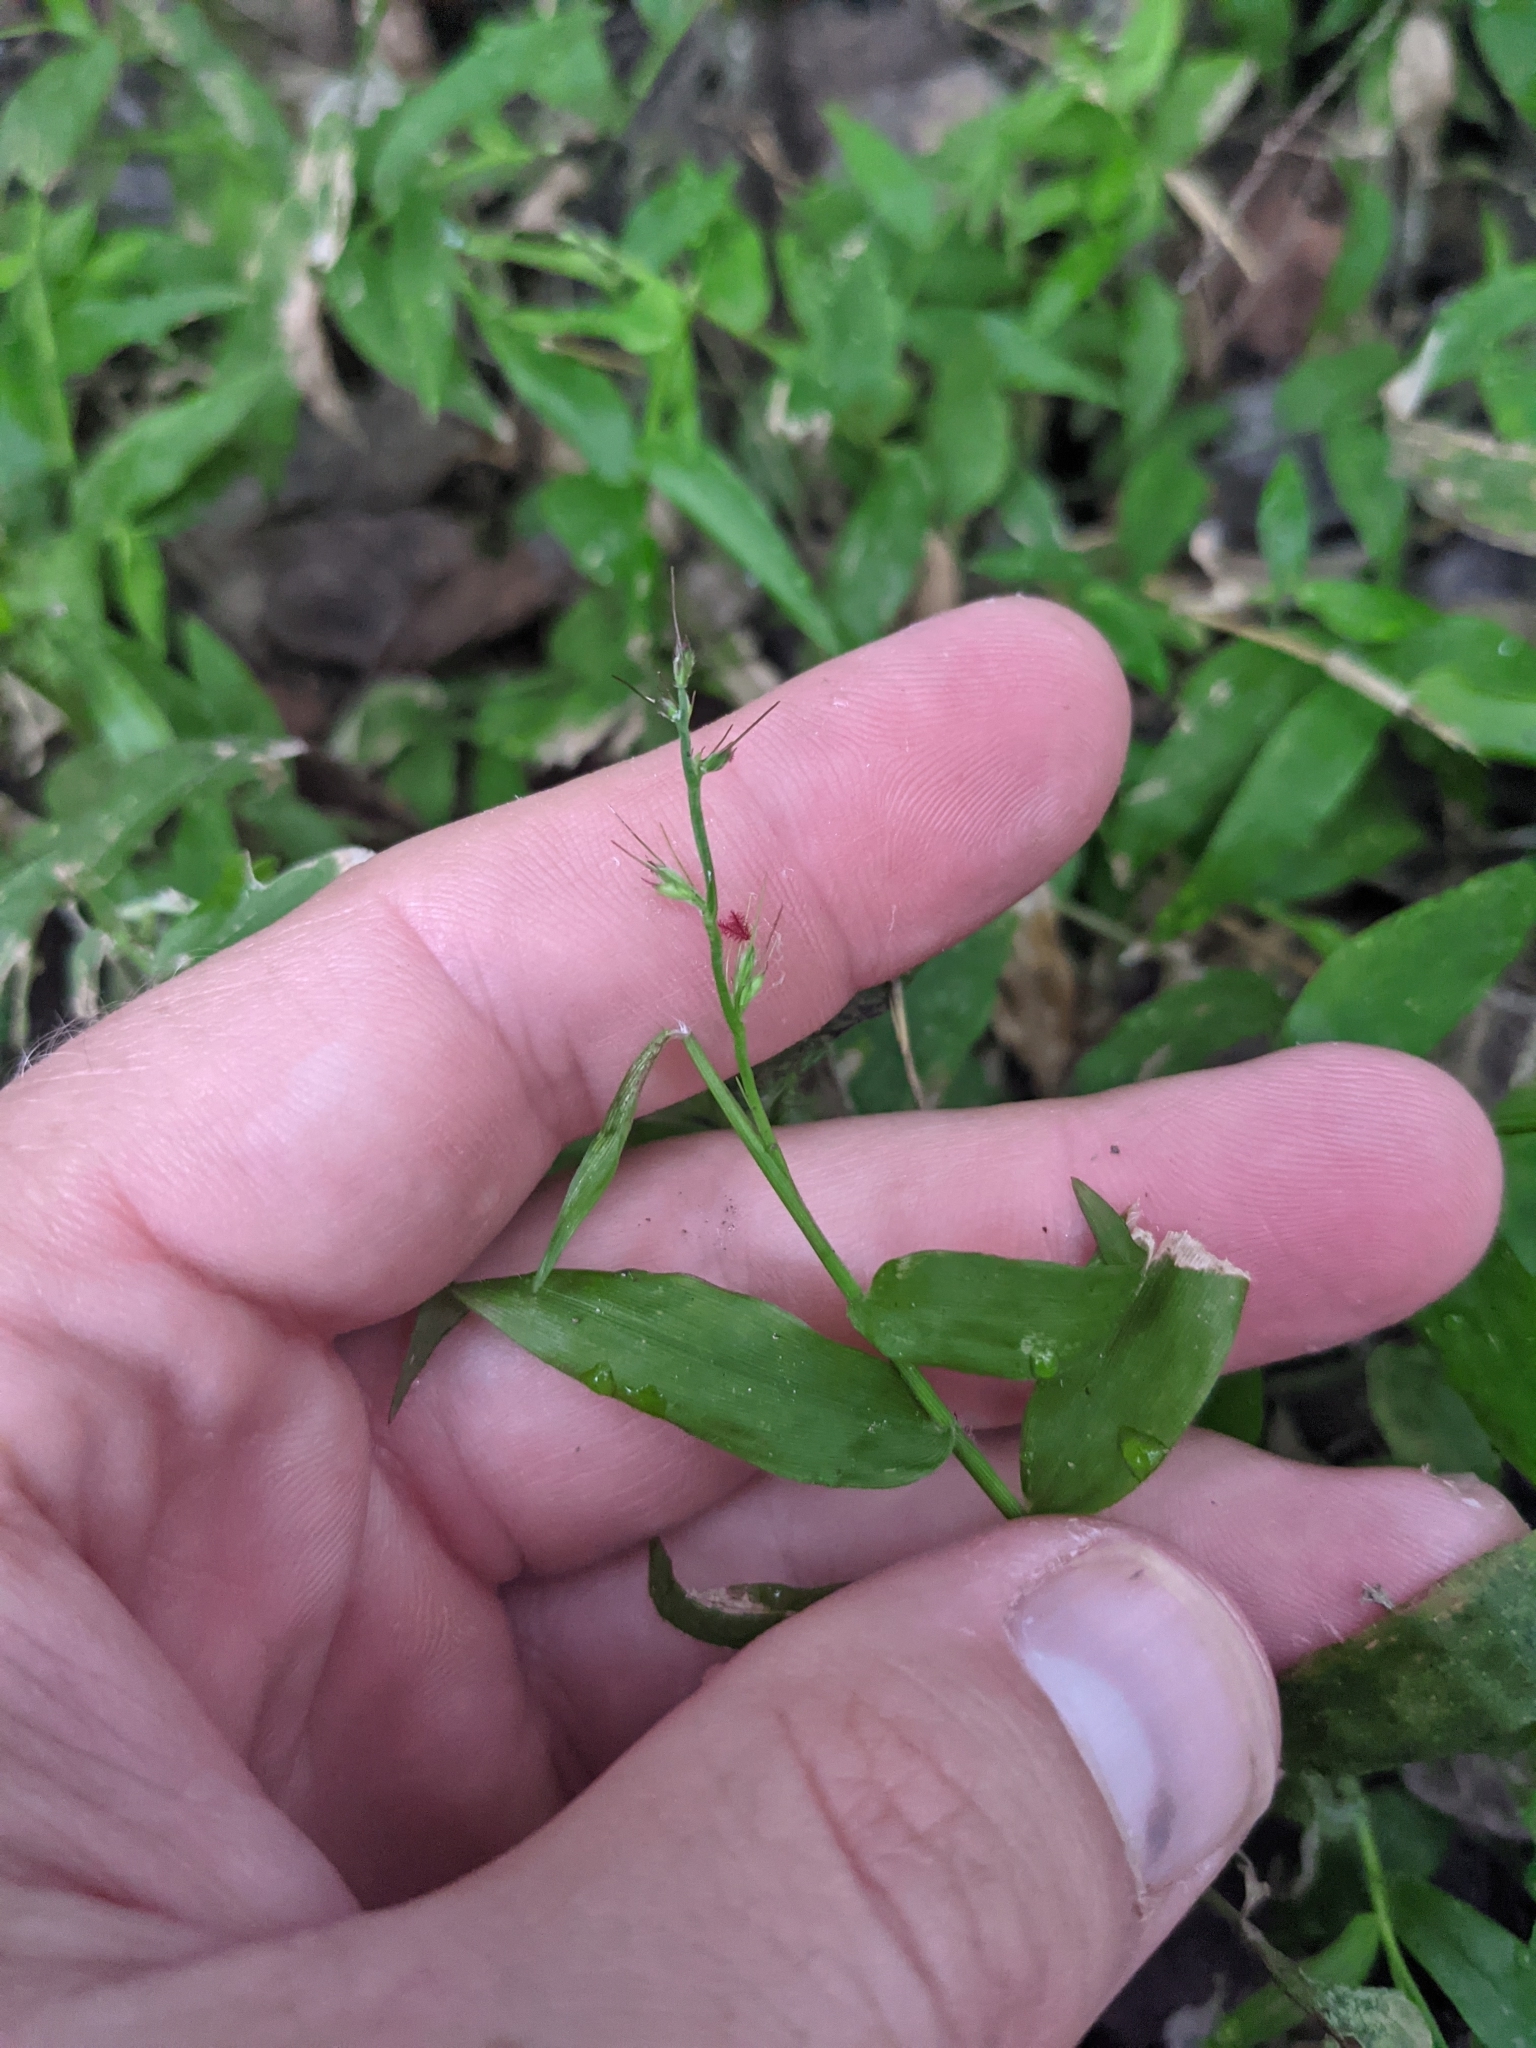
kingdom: Plantae
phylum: Tracheophyta
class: Liliopsida
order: Poales
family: Poaceae
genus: Oplismenus
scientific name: Oplismenus hirtellus
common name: Basketgrass
